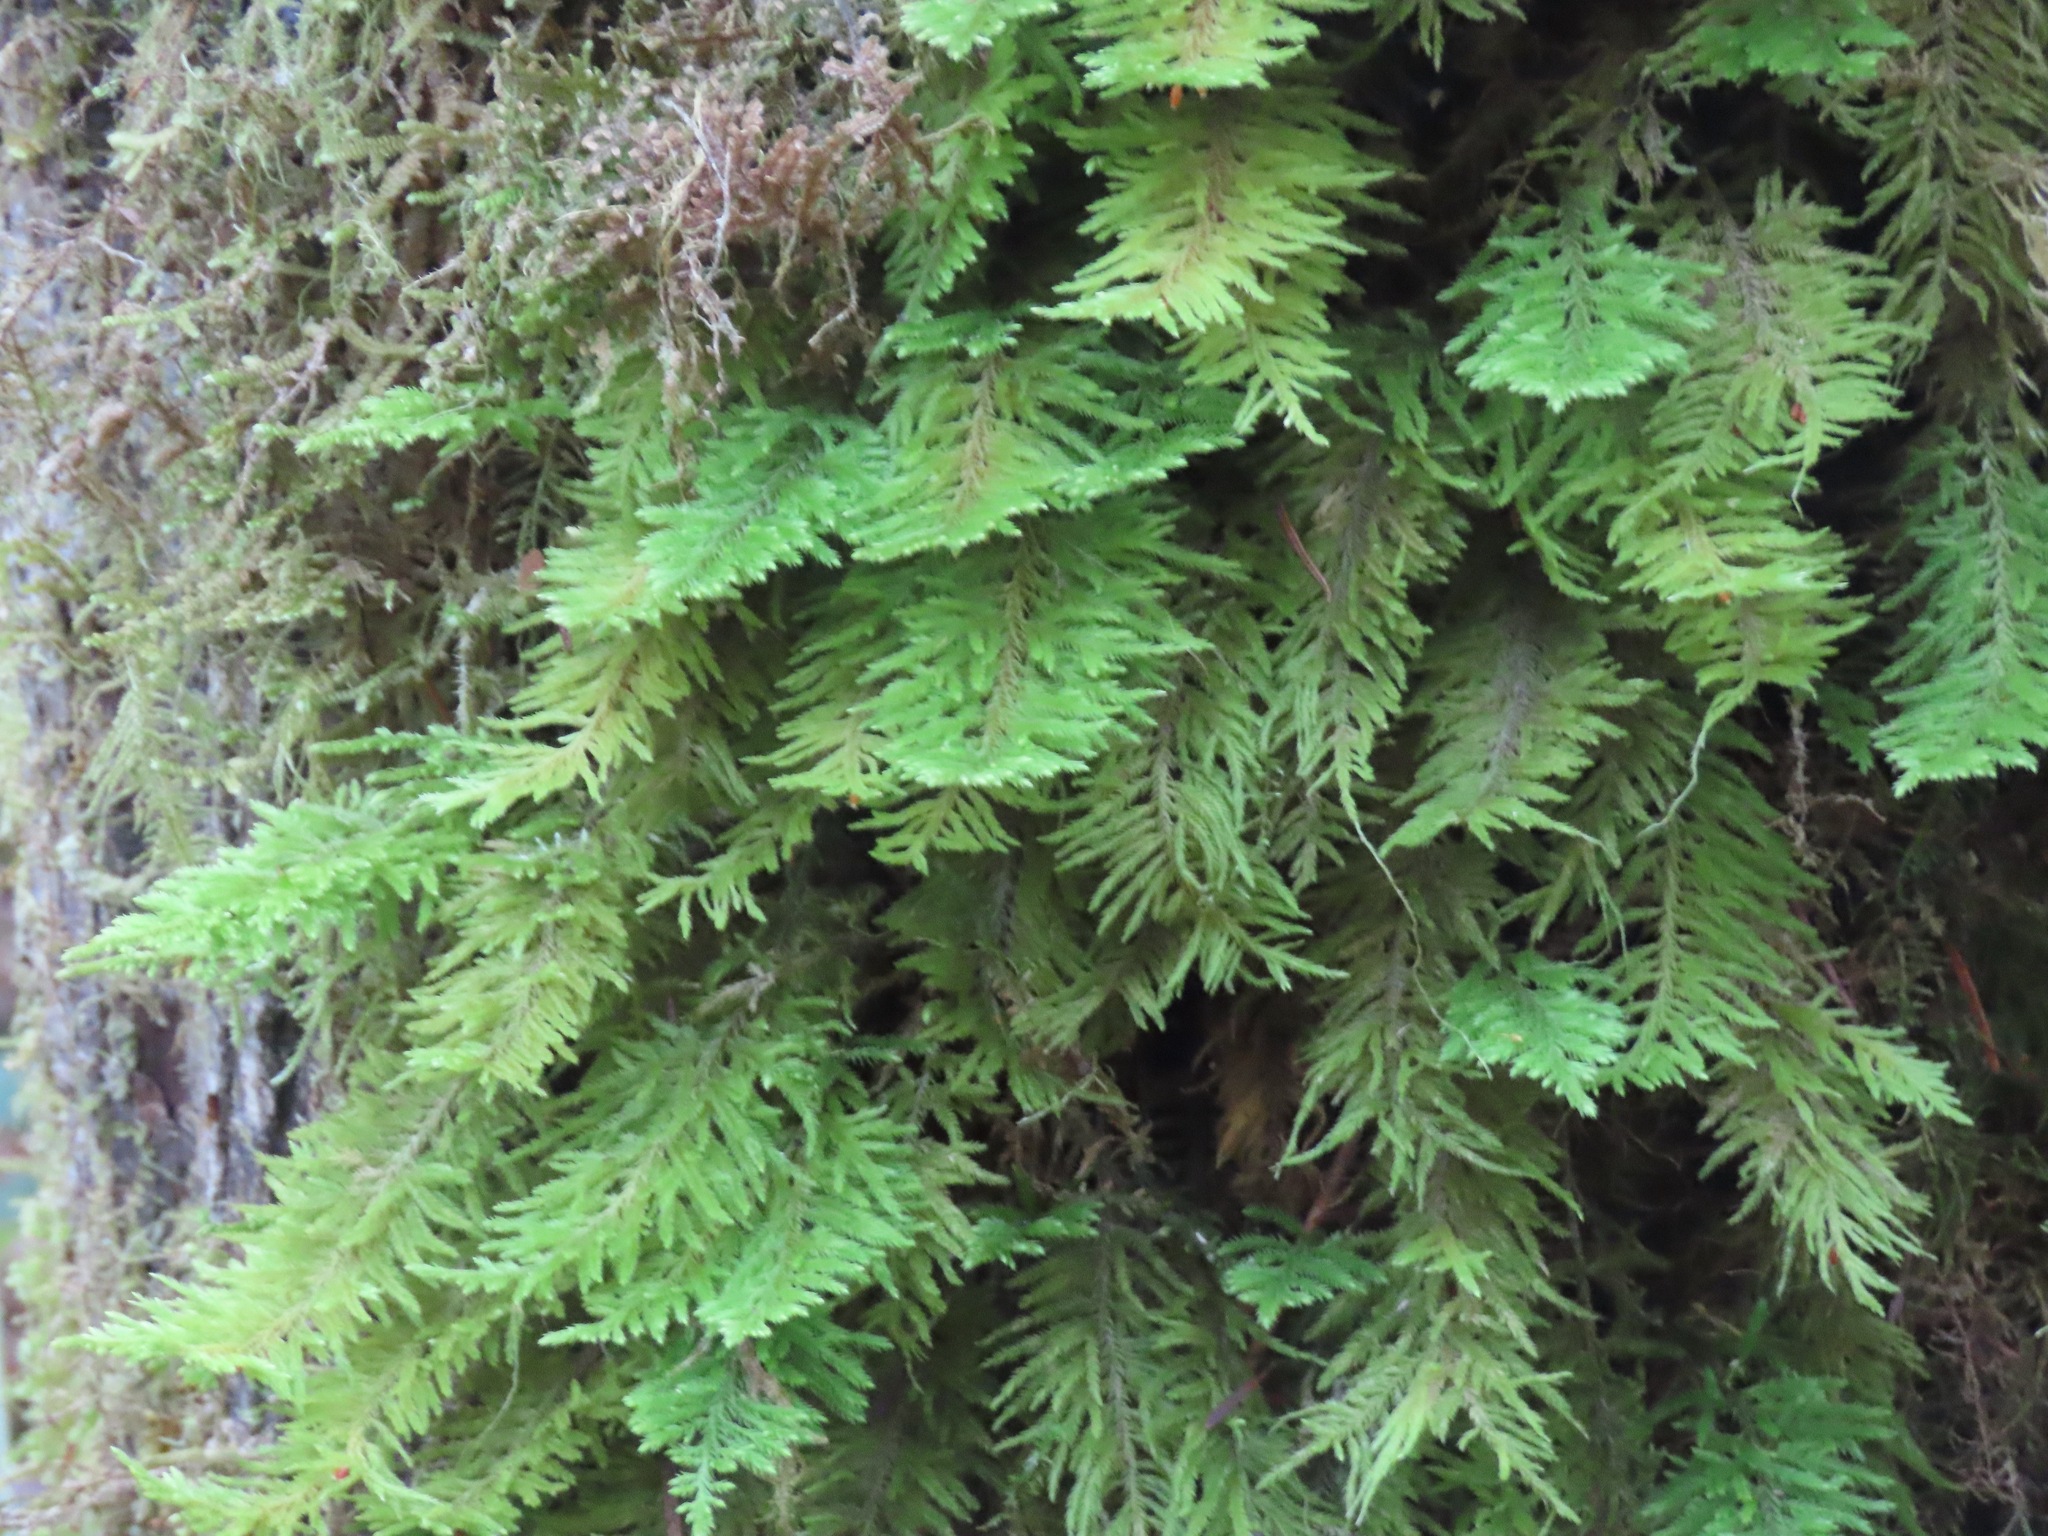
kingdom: Plantae
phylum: Bryophyta
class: Bryopsida
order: Hypnales
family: Cryphaeaceae
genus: Dendroalsia
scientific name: Dendroalsia abietina
